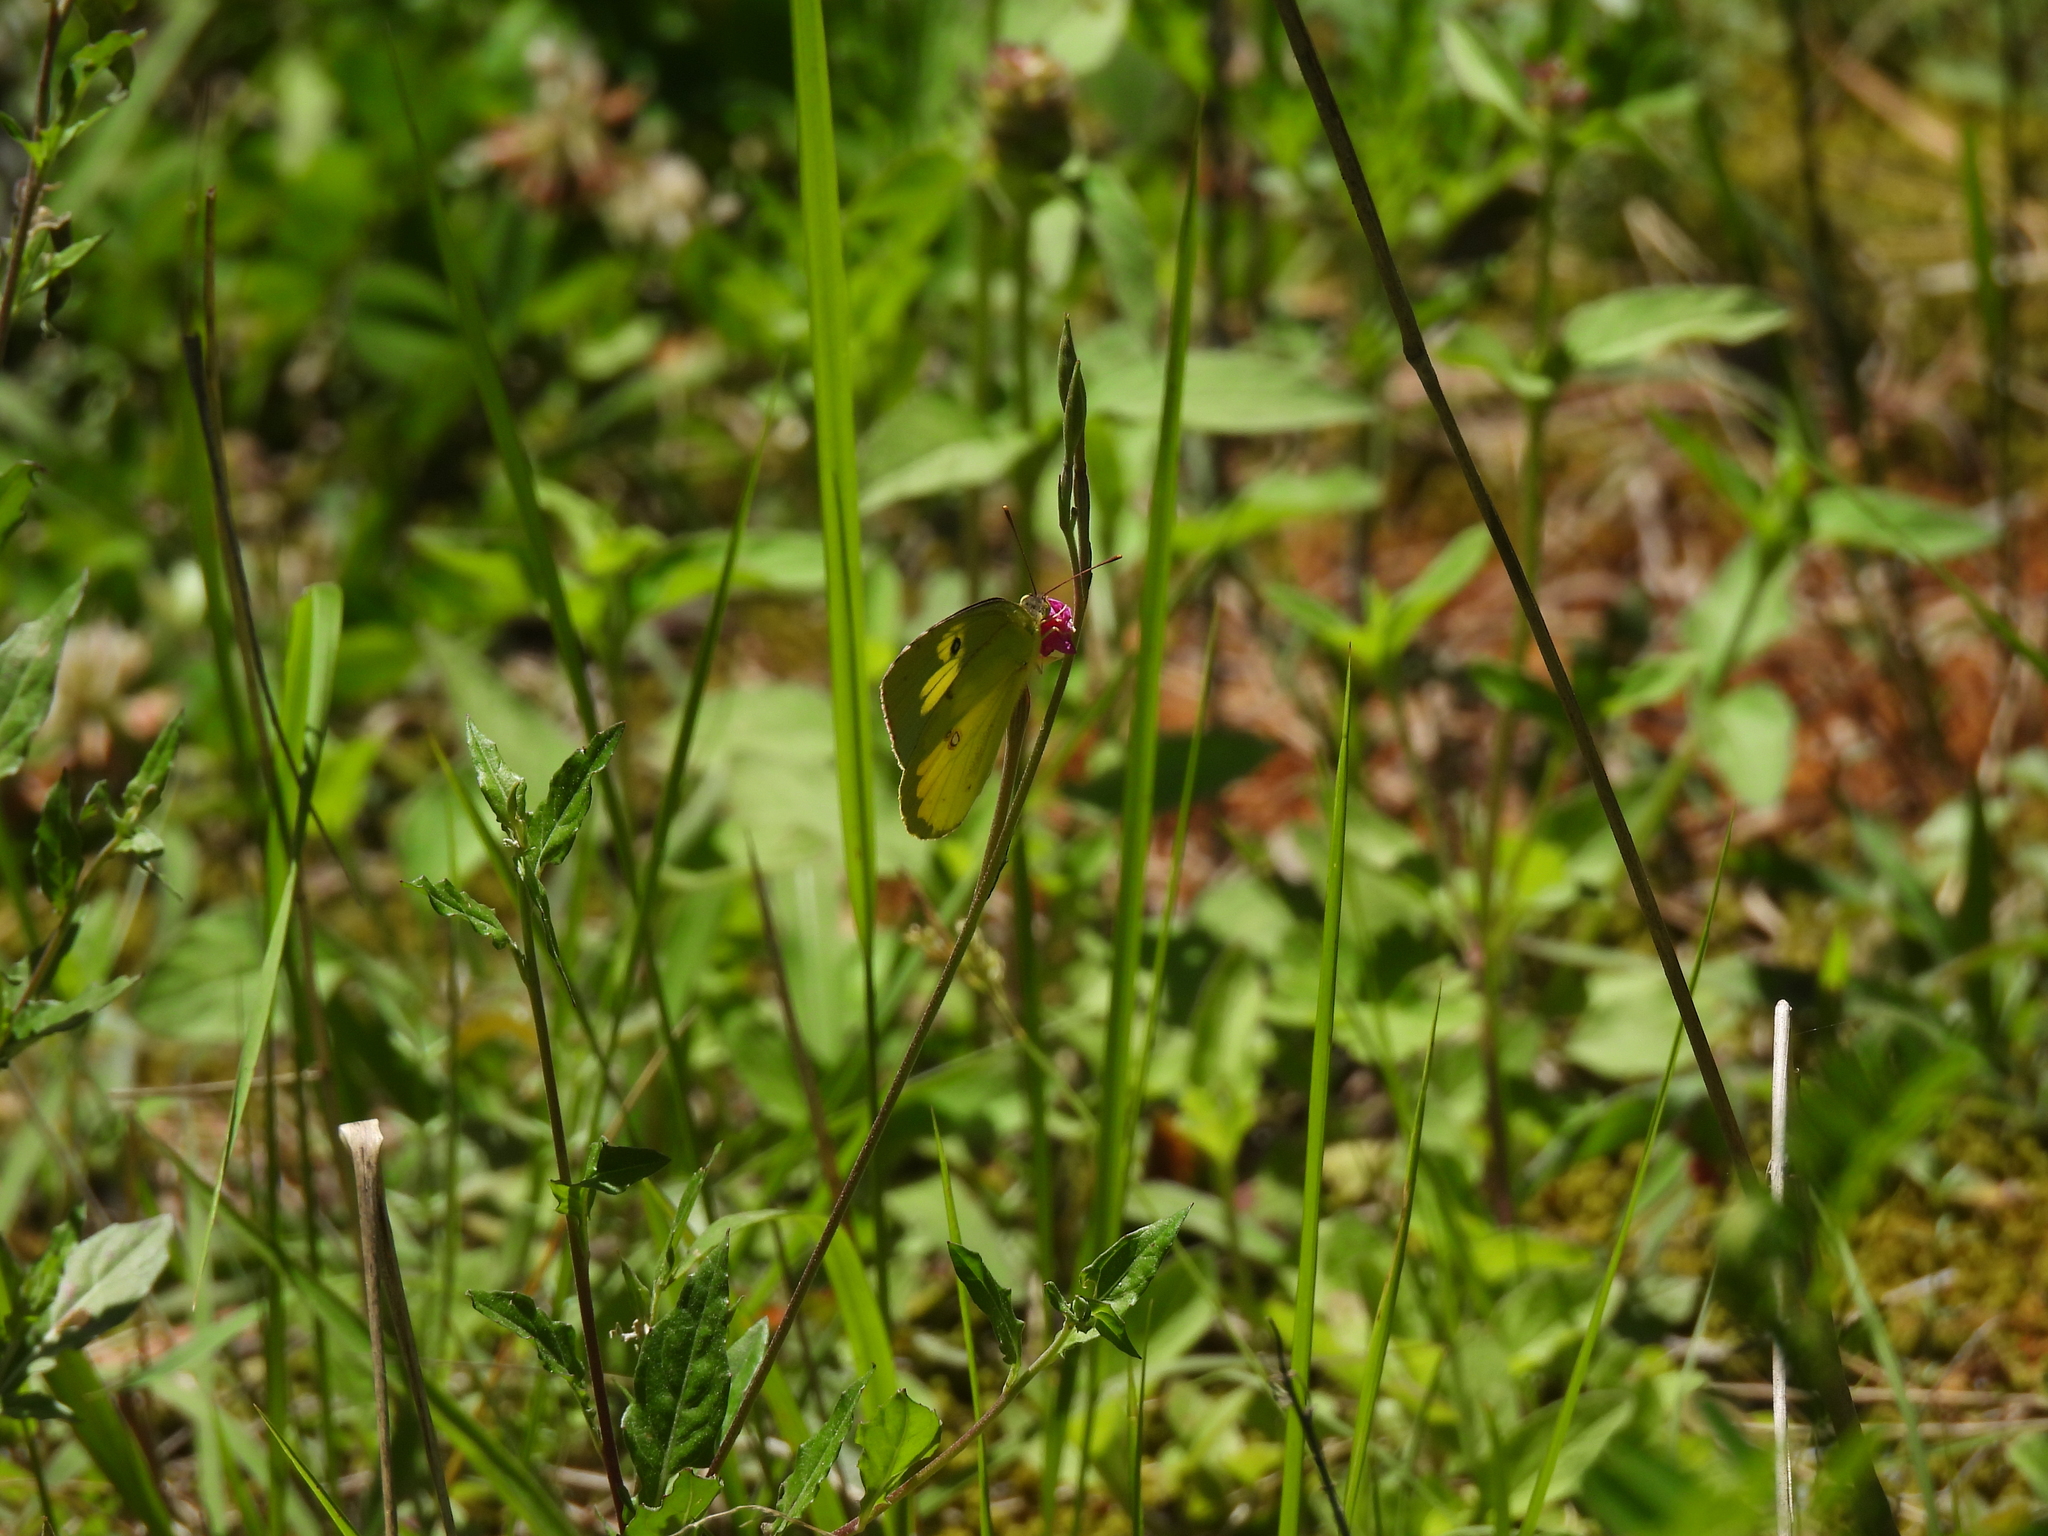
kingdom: Animalia
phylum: Arthropoda
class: Insecta
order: Lepidoptera
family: Pieridae
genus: Zerene
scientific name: Zerene cesonia
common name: Southern dogface
